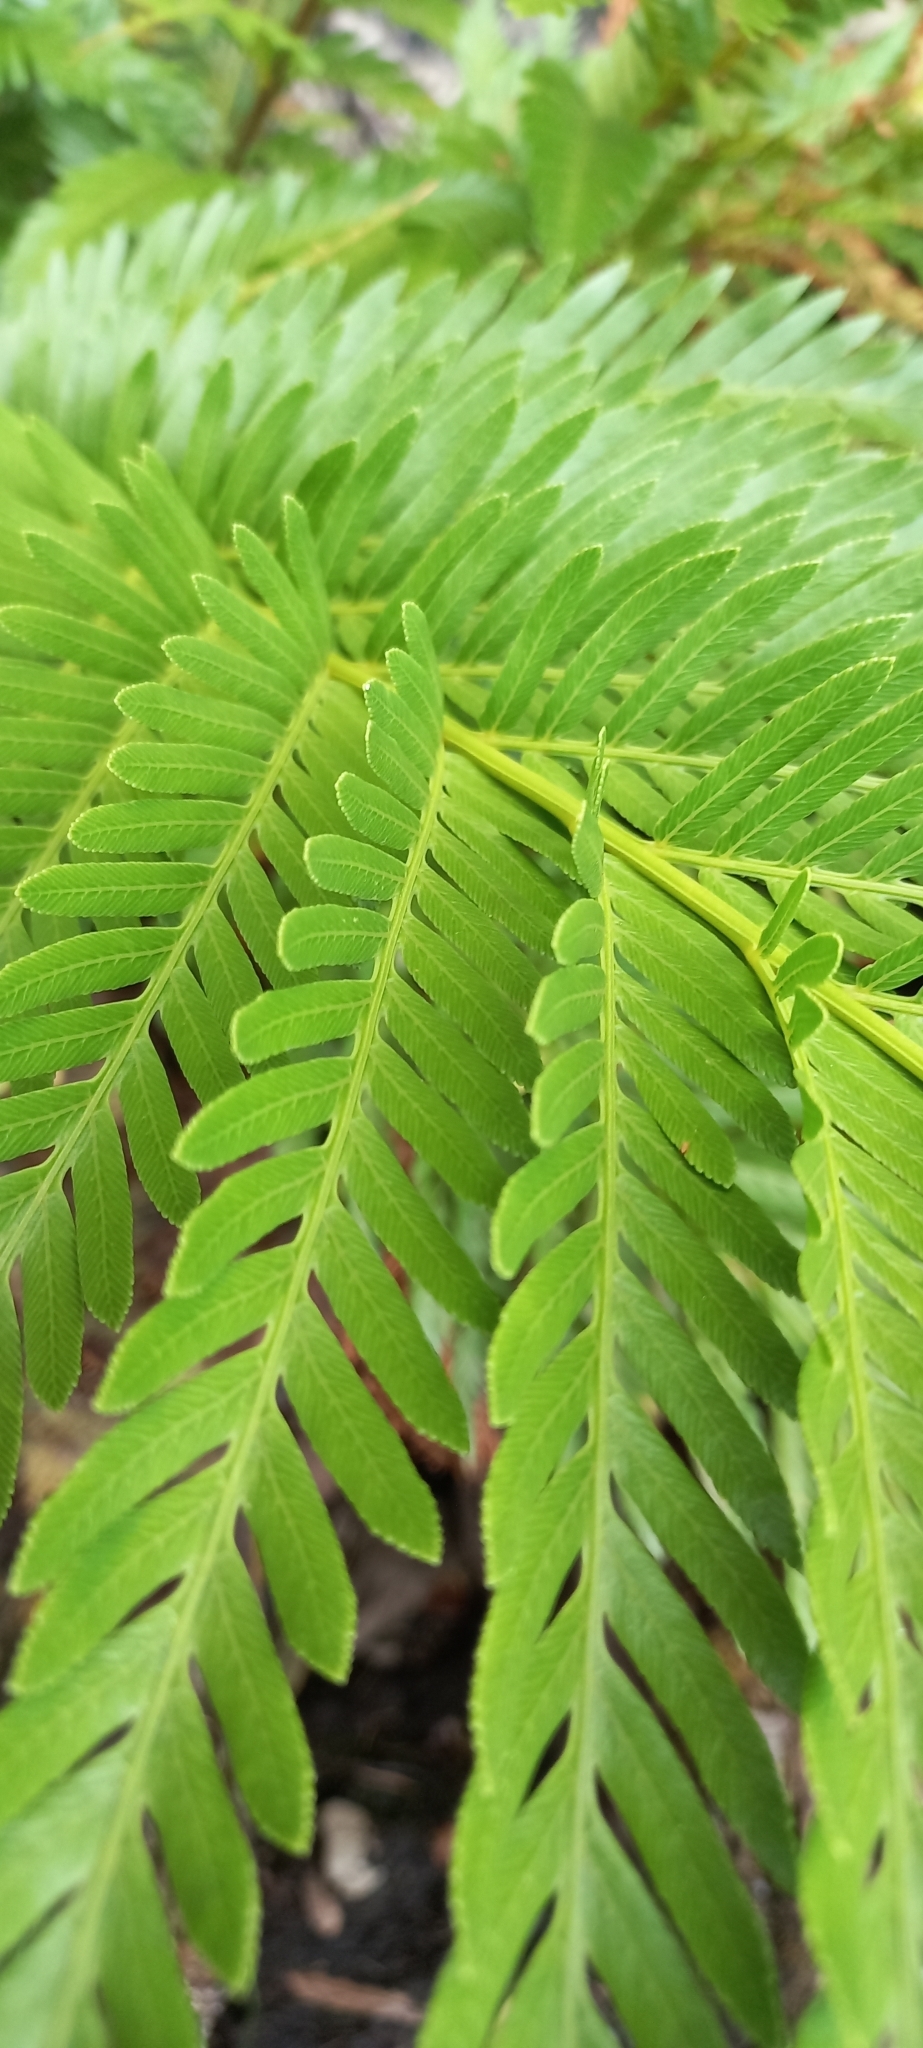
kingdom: Plantae
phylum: Tracheophyta
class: Polypodiopsida
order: Osmundales
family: Osmundaceae
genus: Todea
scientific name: Todea barbara
